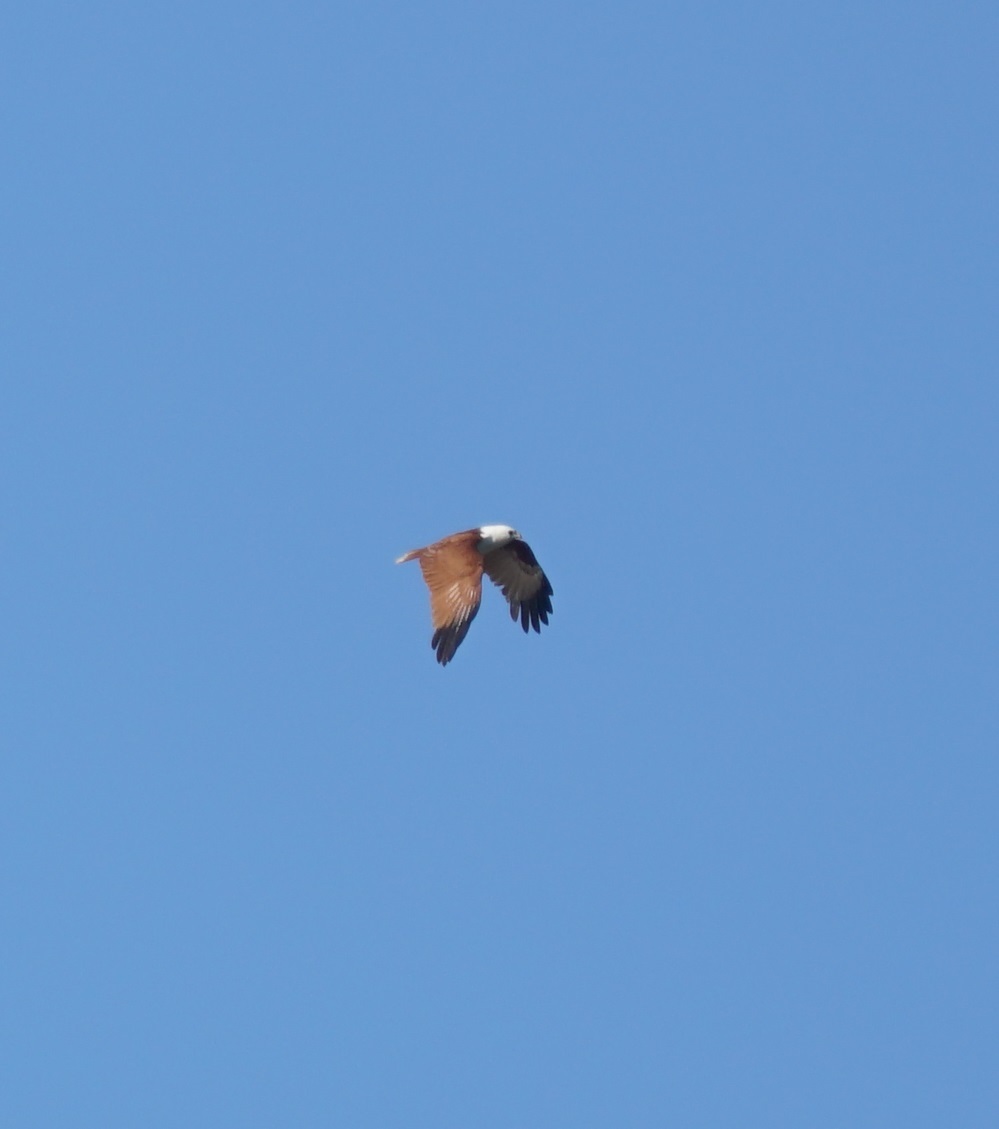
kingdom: Animalia
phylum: Chordata
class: Aves
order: Accipitriformes
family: Accipitridae
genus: Haliastur
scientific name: Haliastur indus
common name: Brahminy kite
